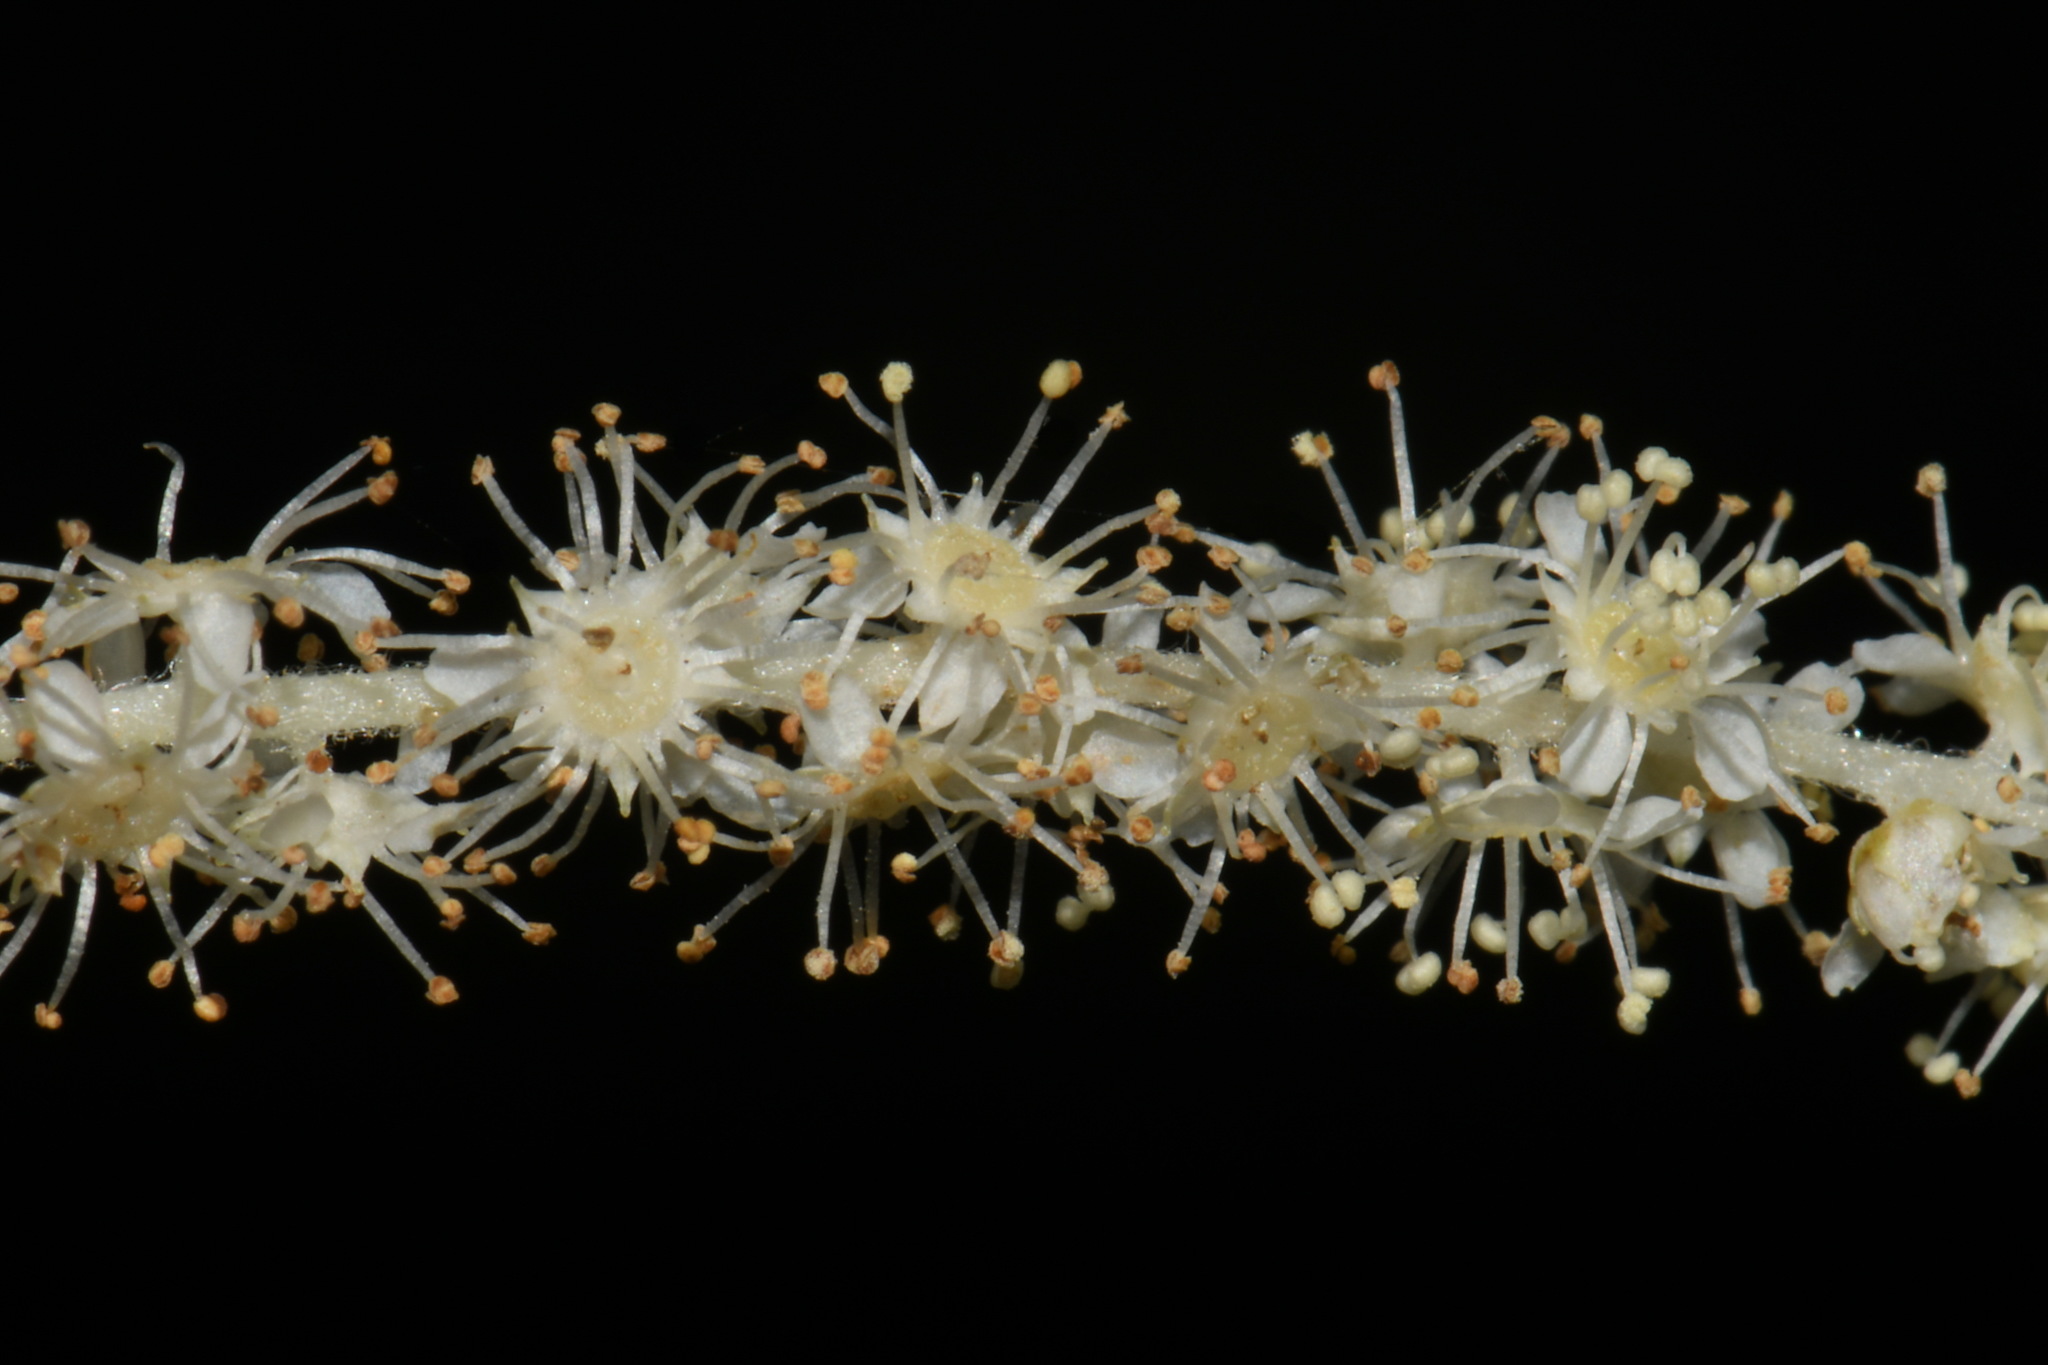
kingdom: Plantae
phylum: Tracheophyta
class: Magnoliopsida
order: Rosales
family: Rosaceae
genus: Aruncus
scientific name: Aruncus dioicus
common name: Buck's-beard
